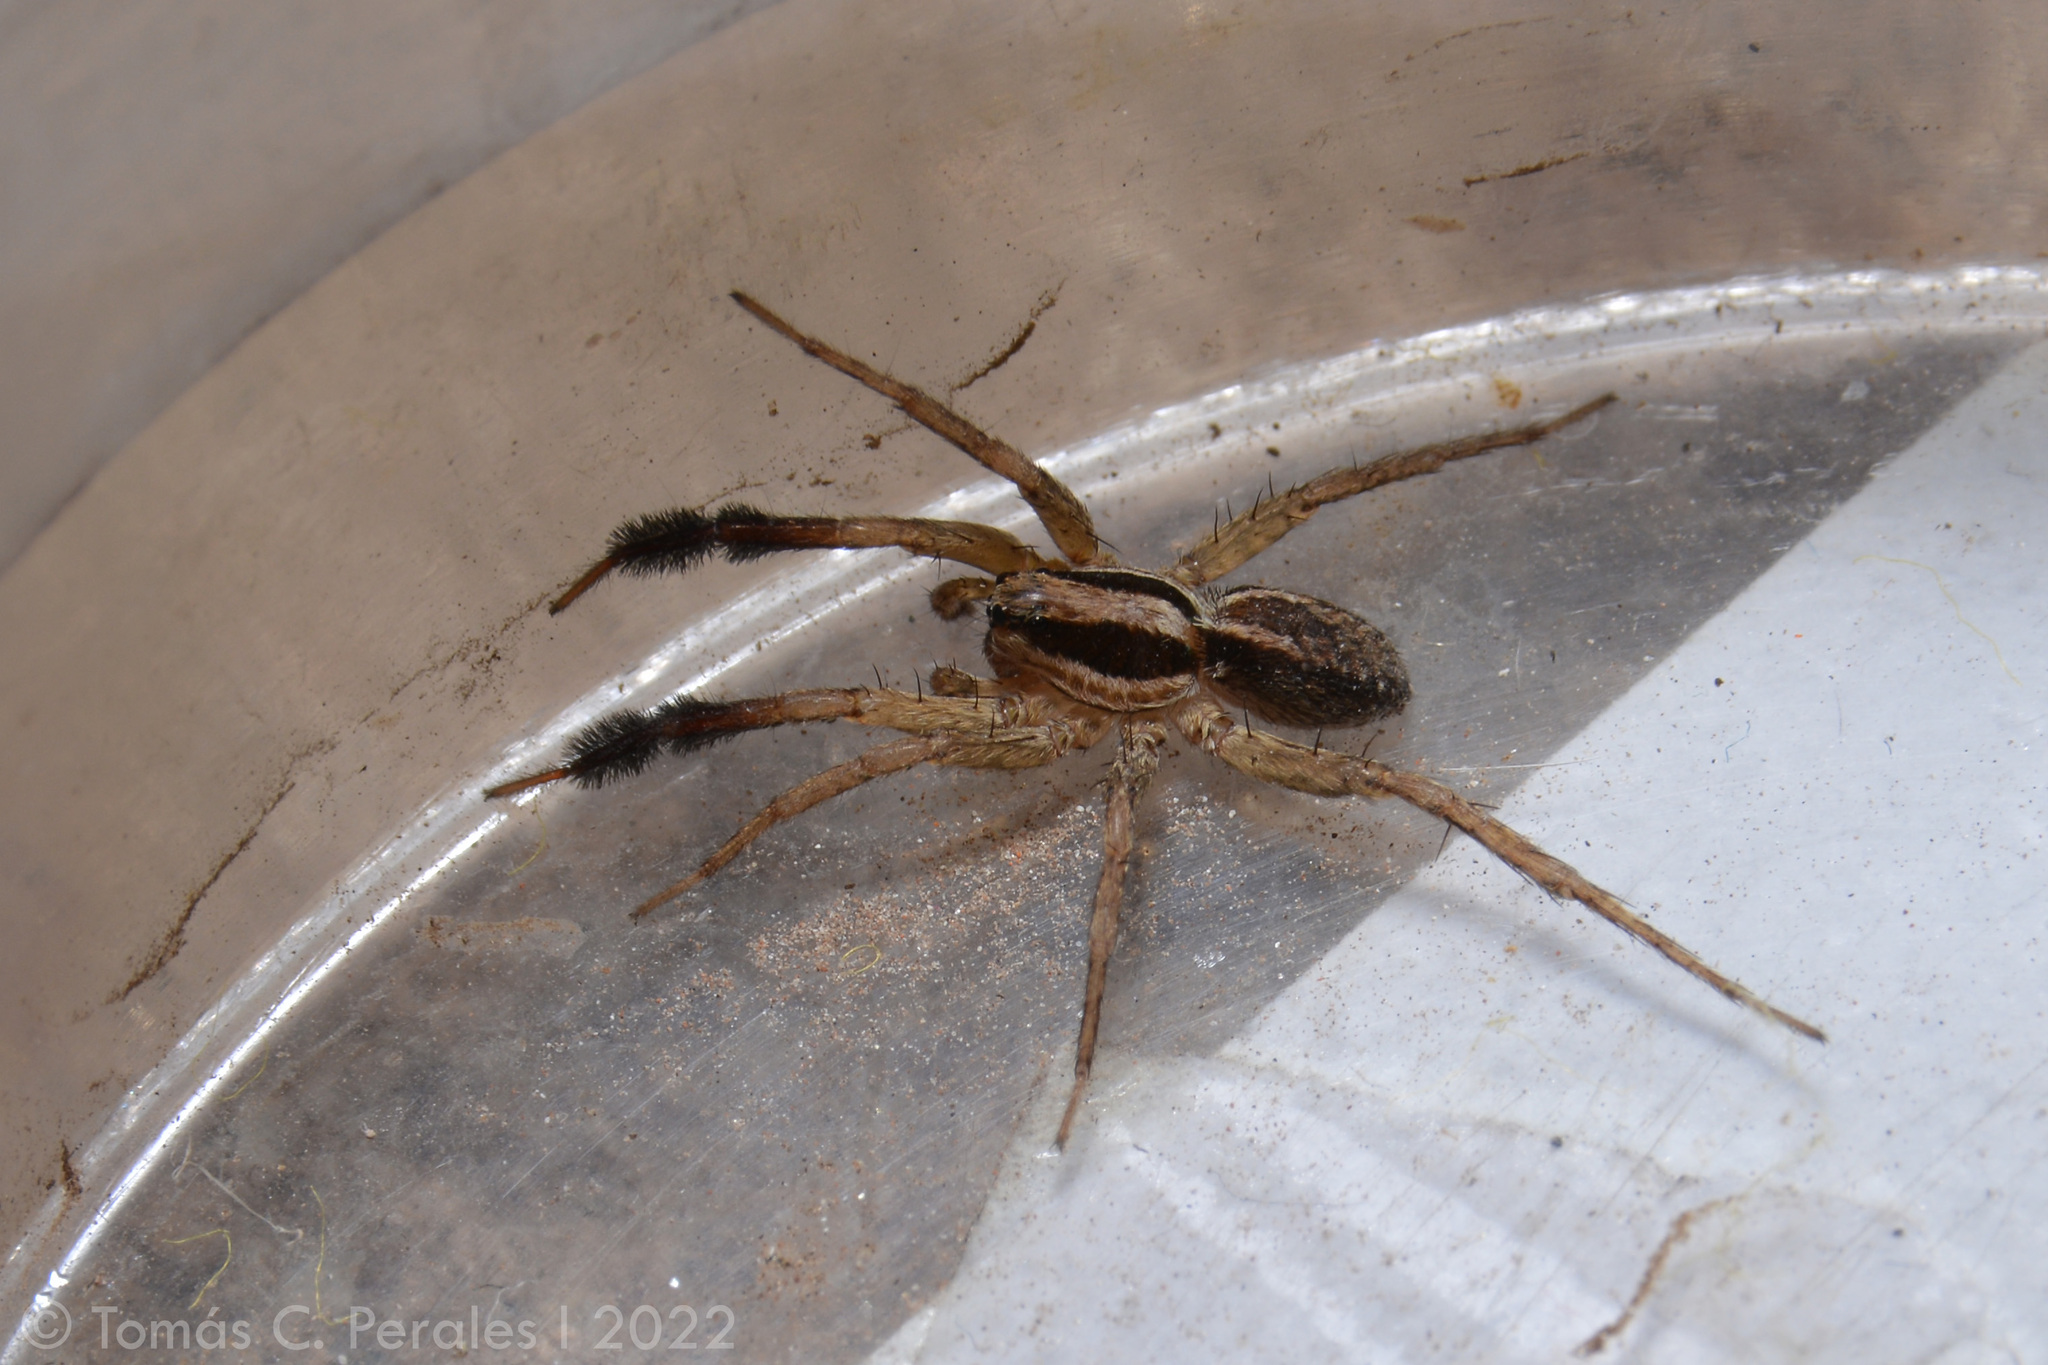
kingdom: Animalia
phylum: Arthropoda
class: Arachnida
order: Araneae
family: Lycosidae
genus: Pardosa
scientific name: Pardosa plumipedata
